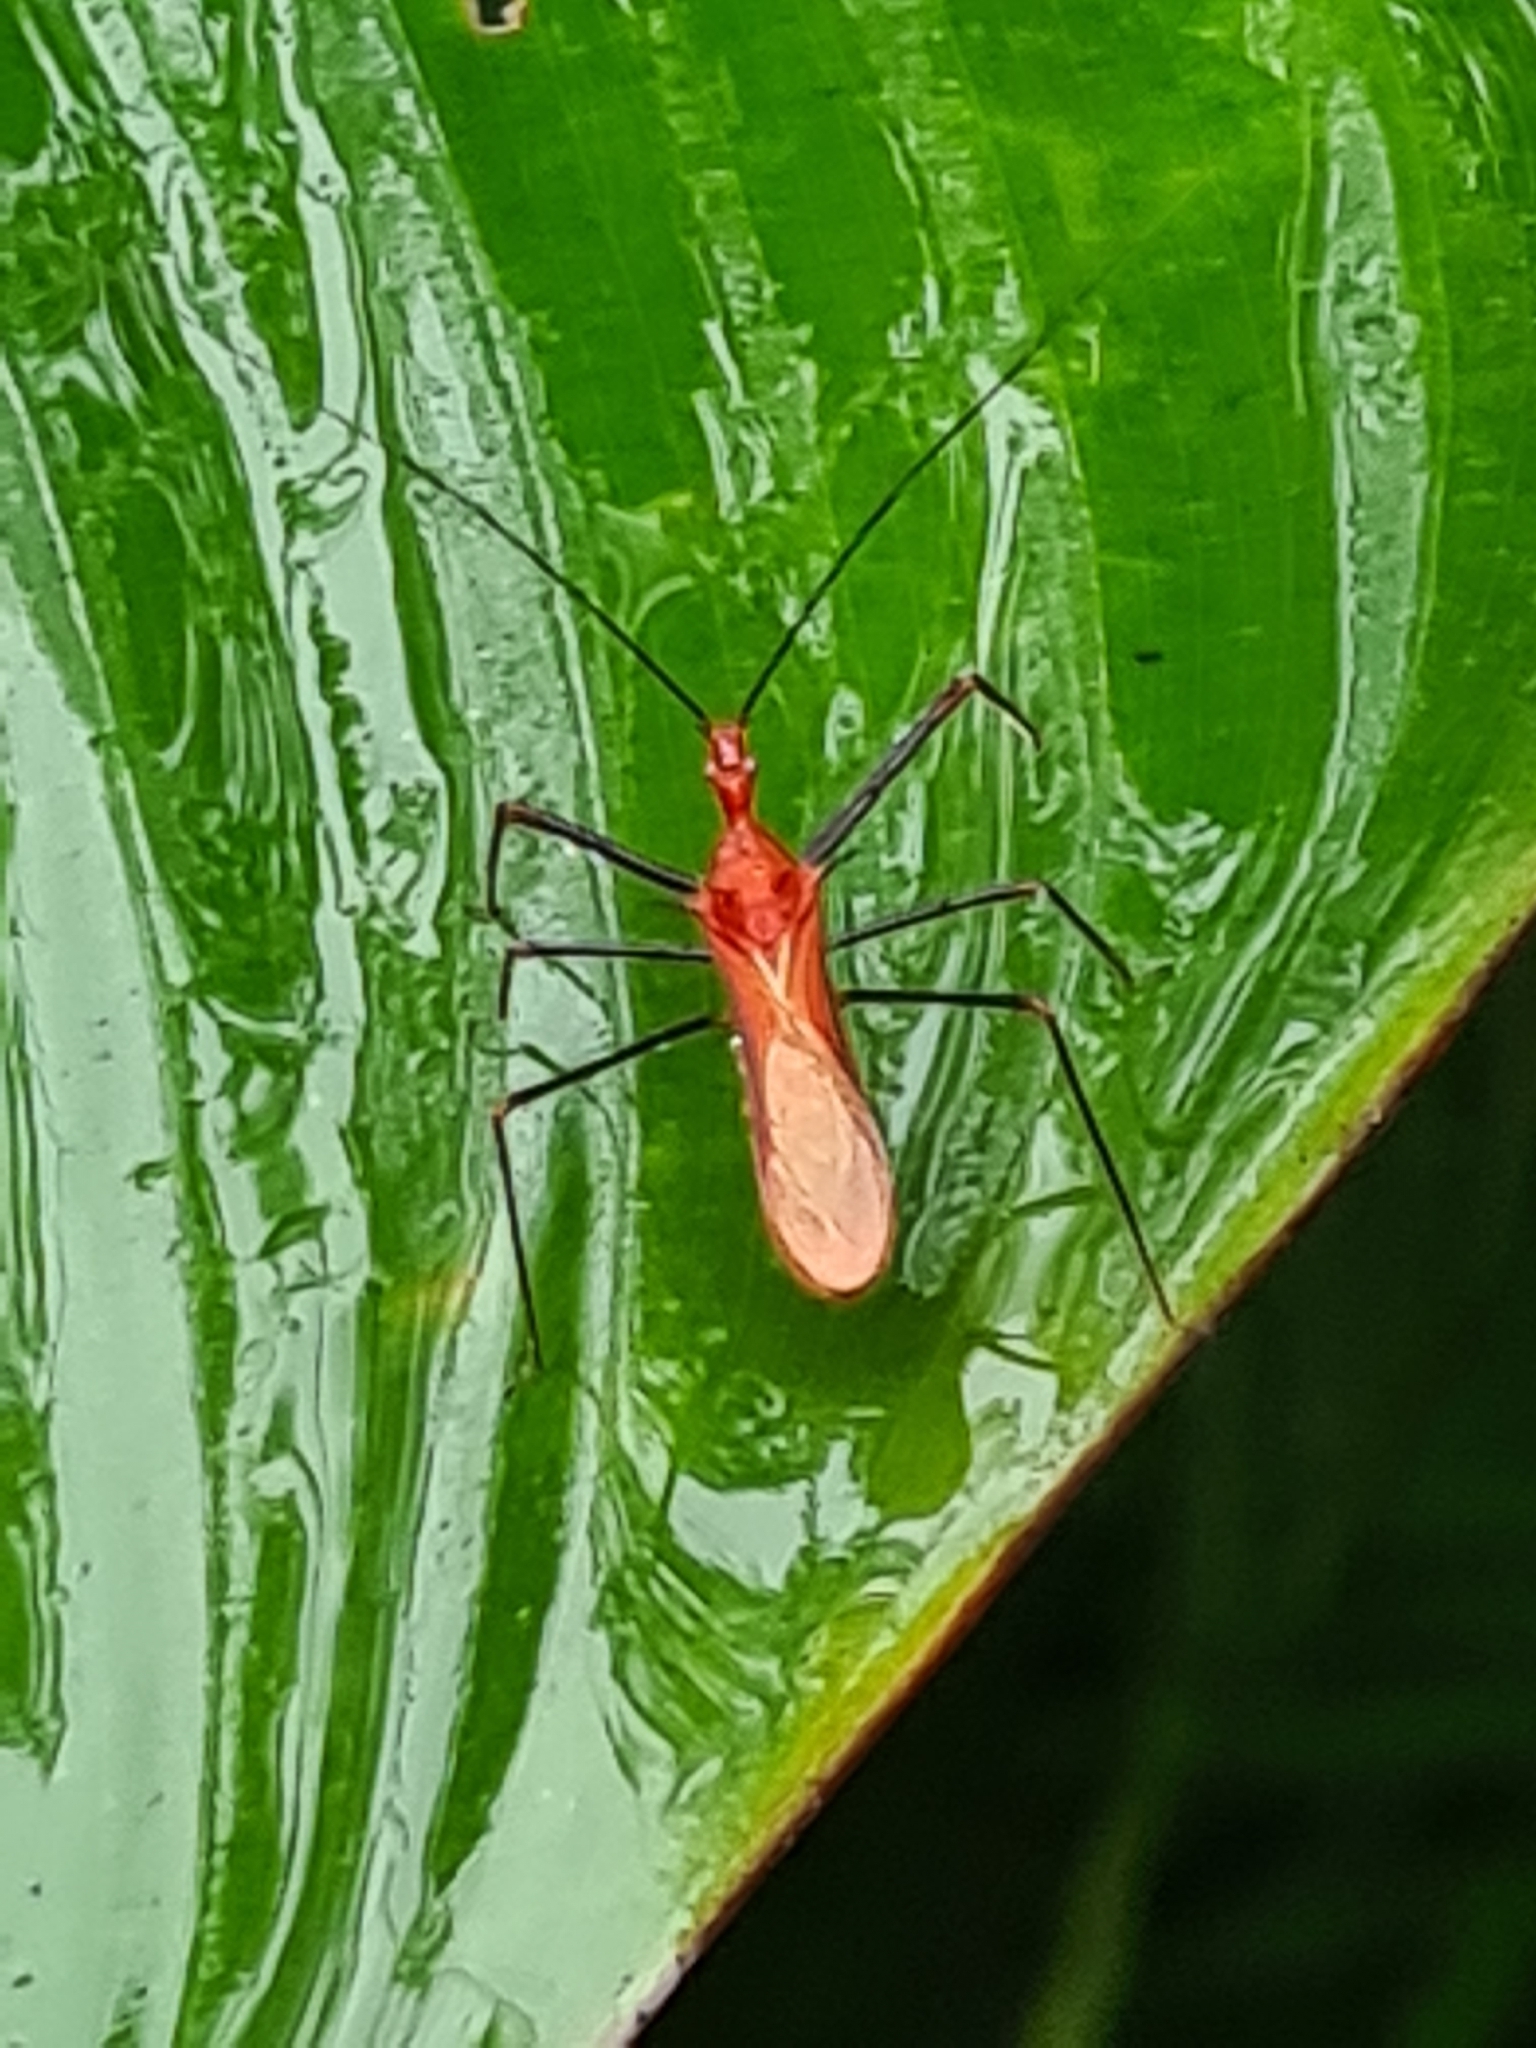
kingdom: Animalia
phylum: Arthropoda
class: Insecta
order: Hemiptera
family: Reduviidae
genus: Ricolla
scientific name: Ricolla quadrispinosa
